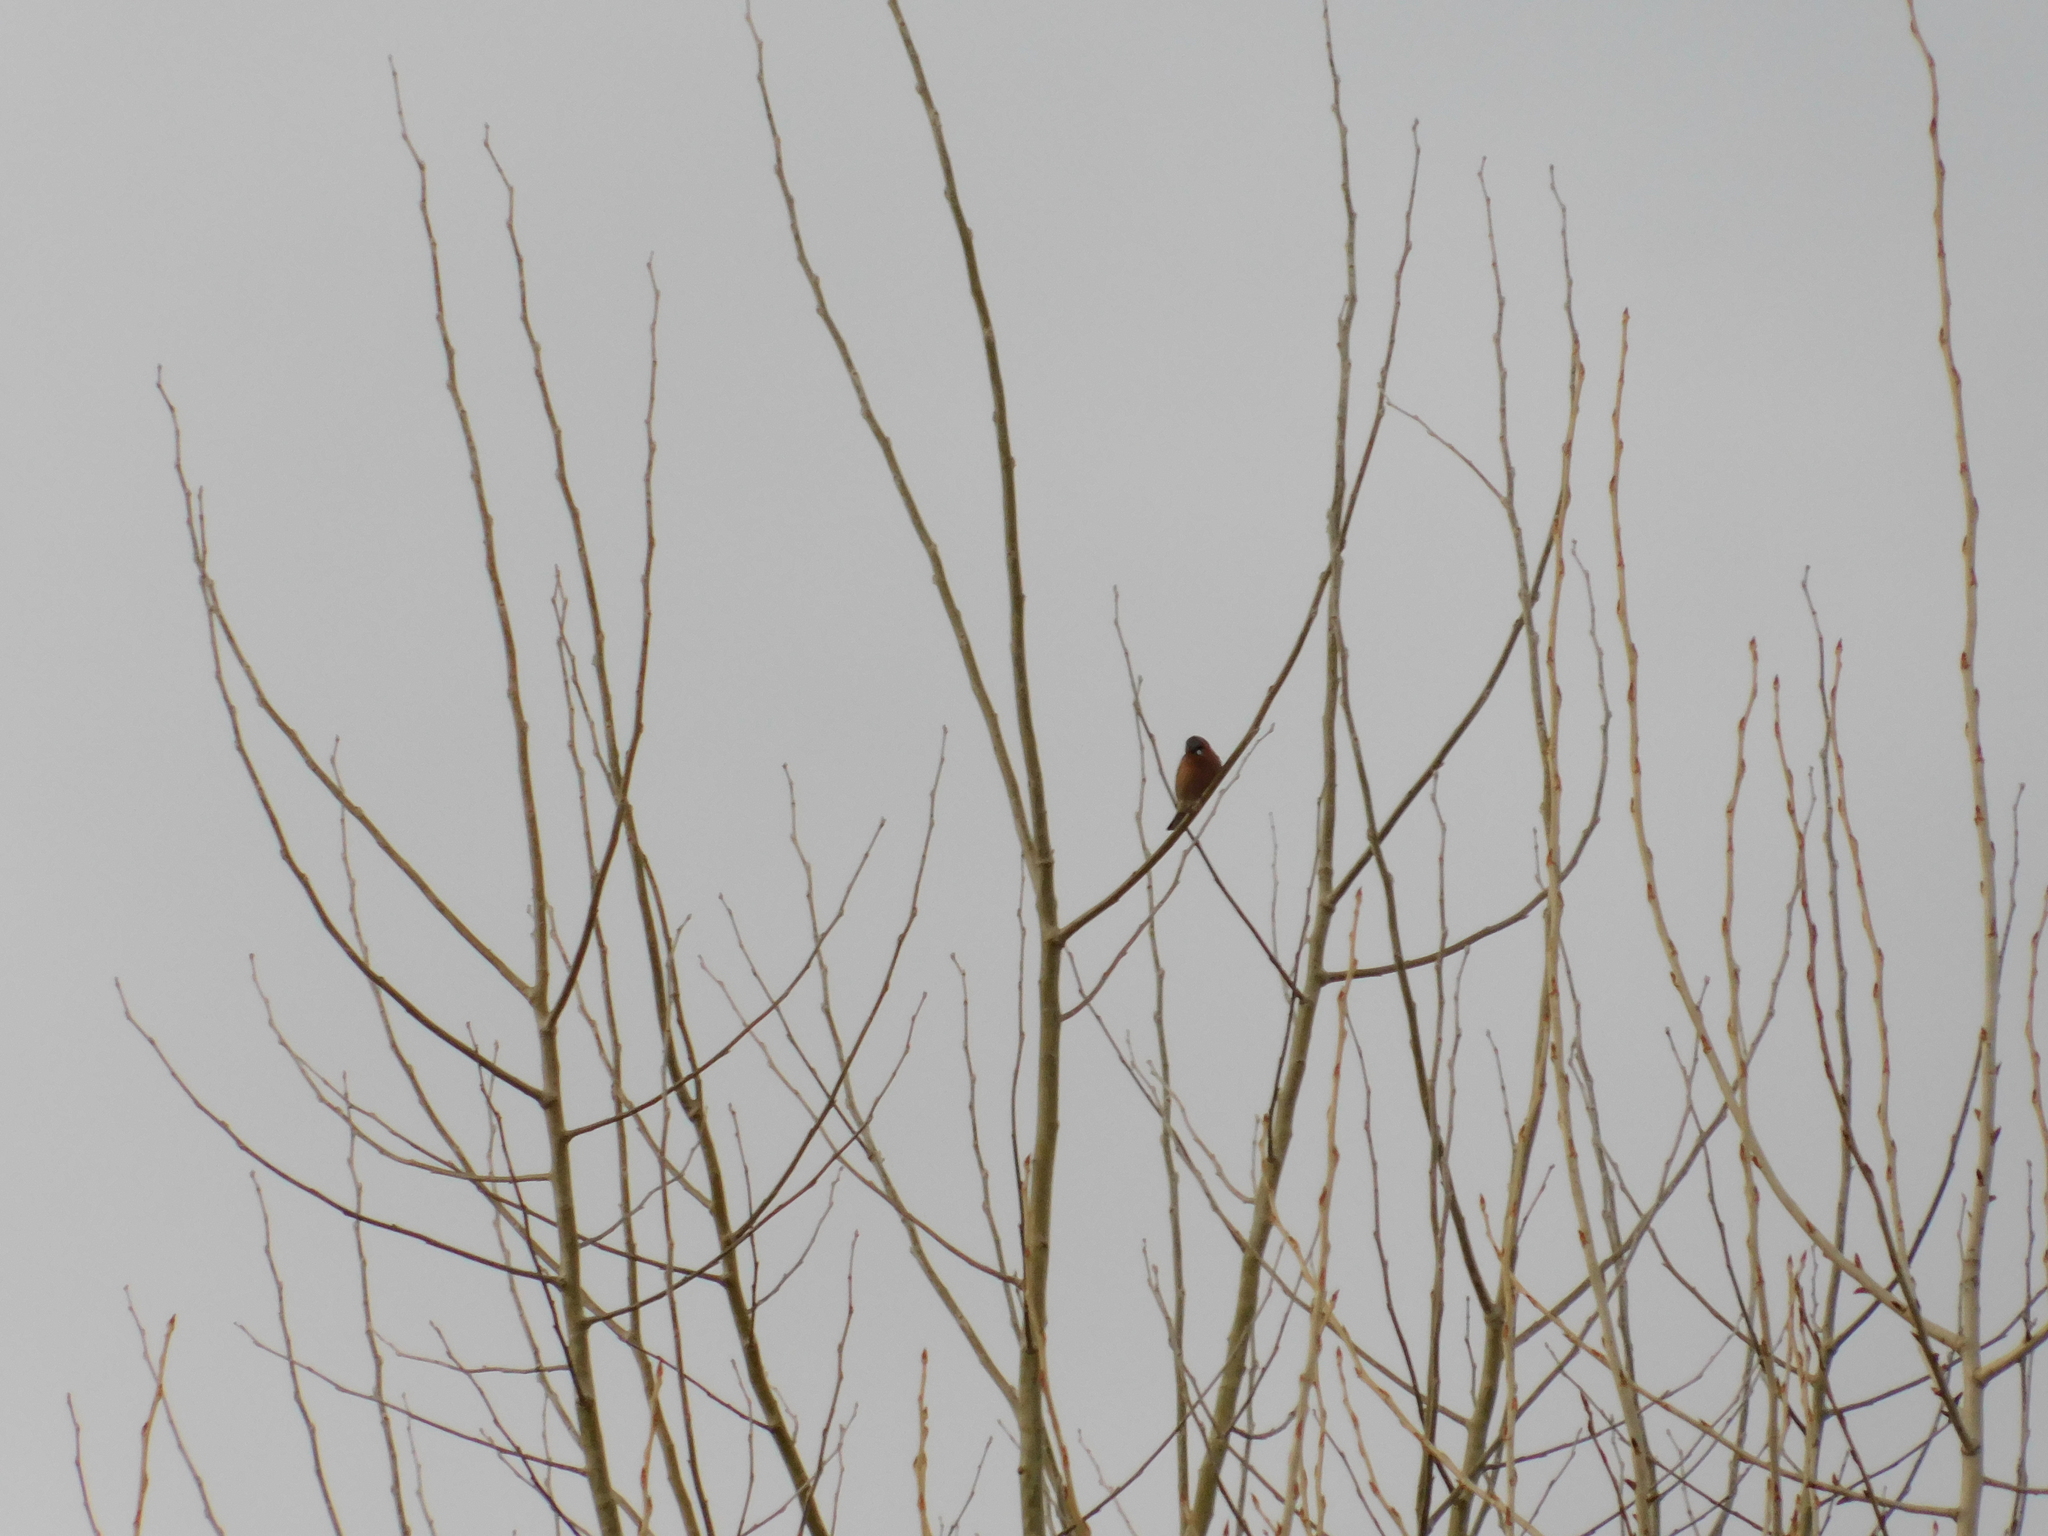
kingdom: Animalia
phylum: Chordata
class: Aves
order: Passeriformes
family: Fringillidae
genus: Fringilla
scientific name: Fringilla coelebs
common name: Common chaffinch
